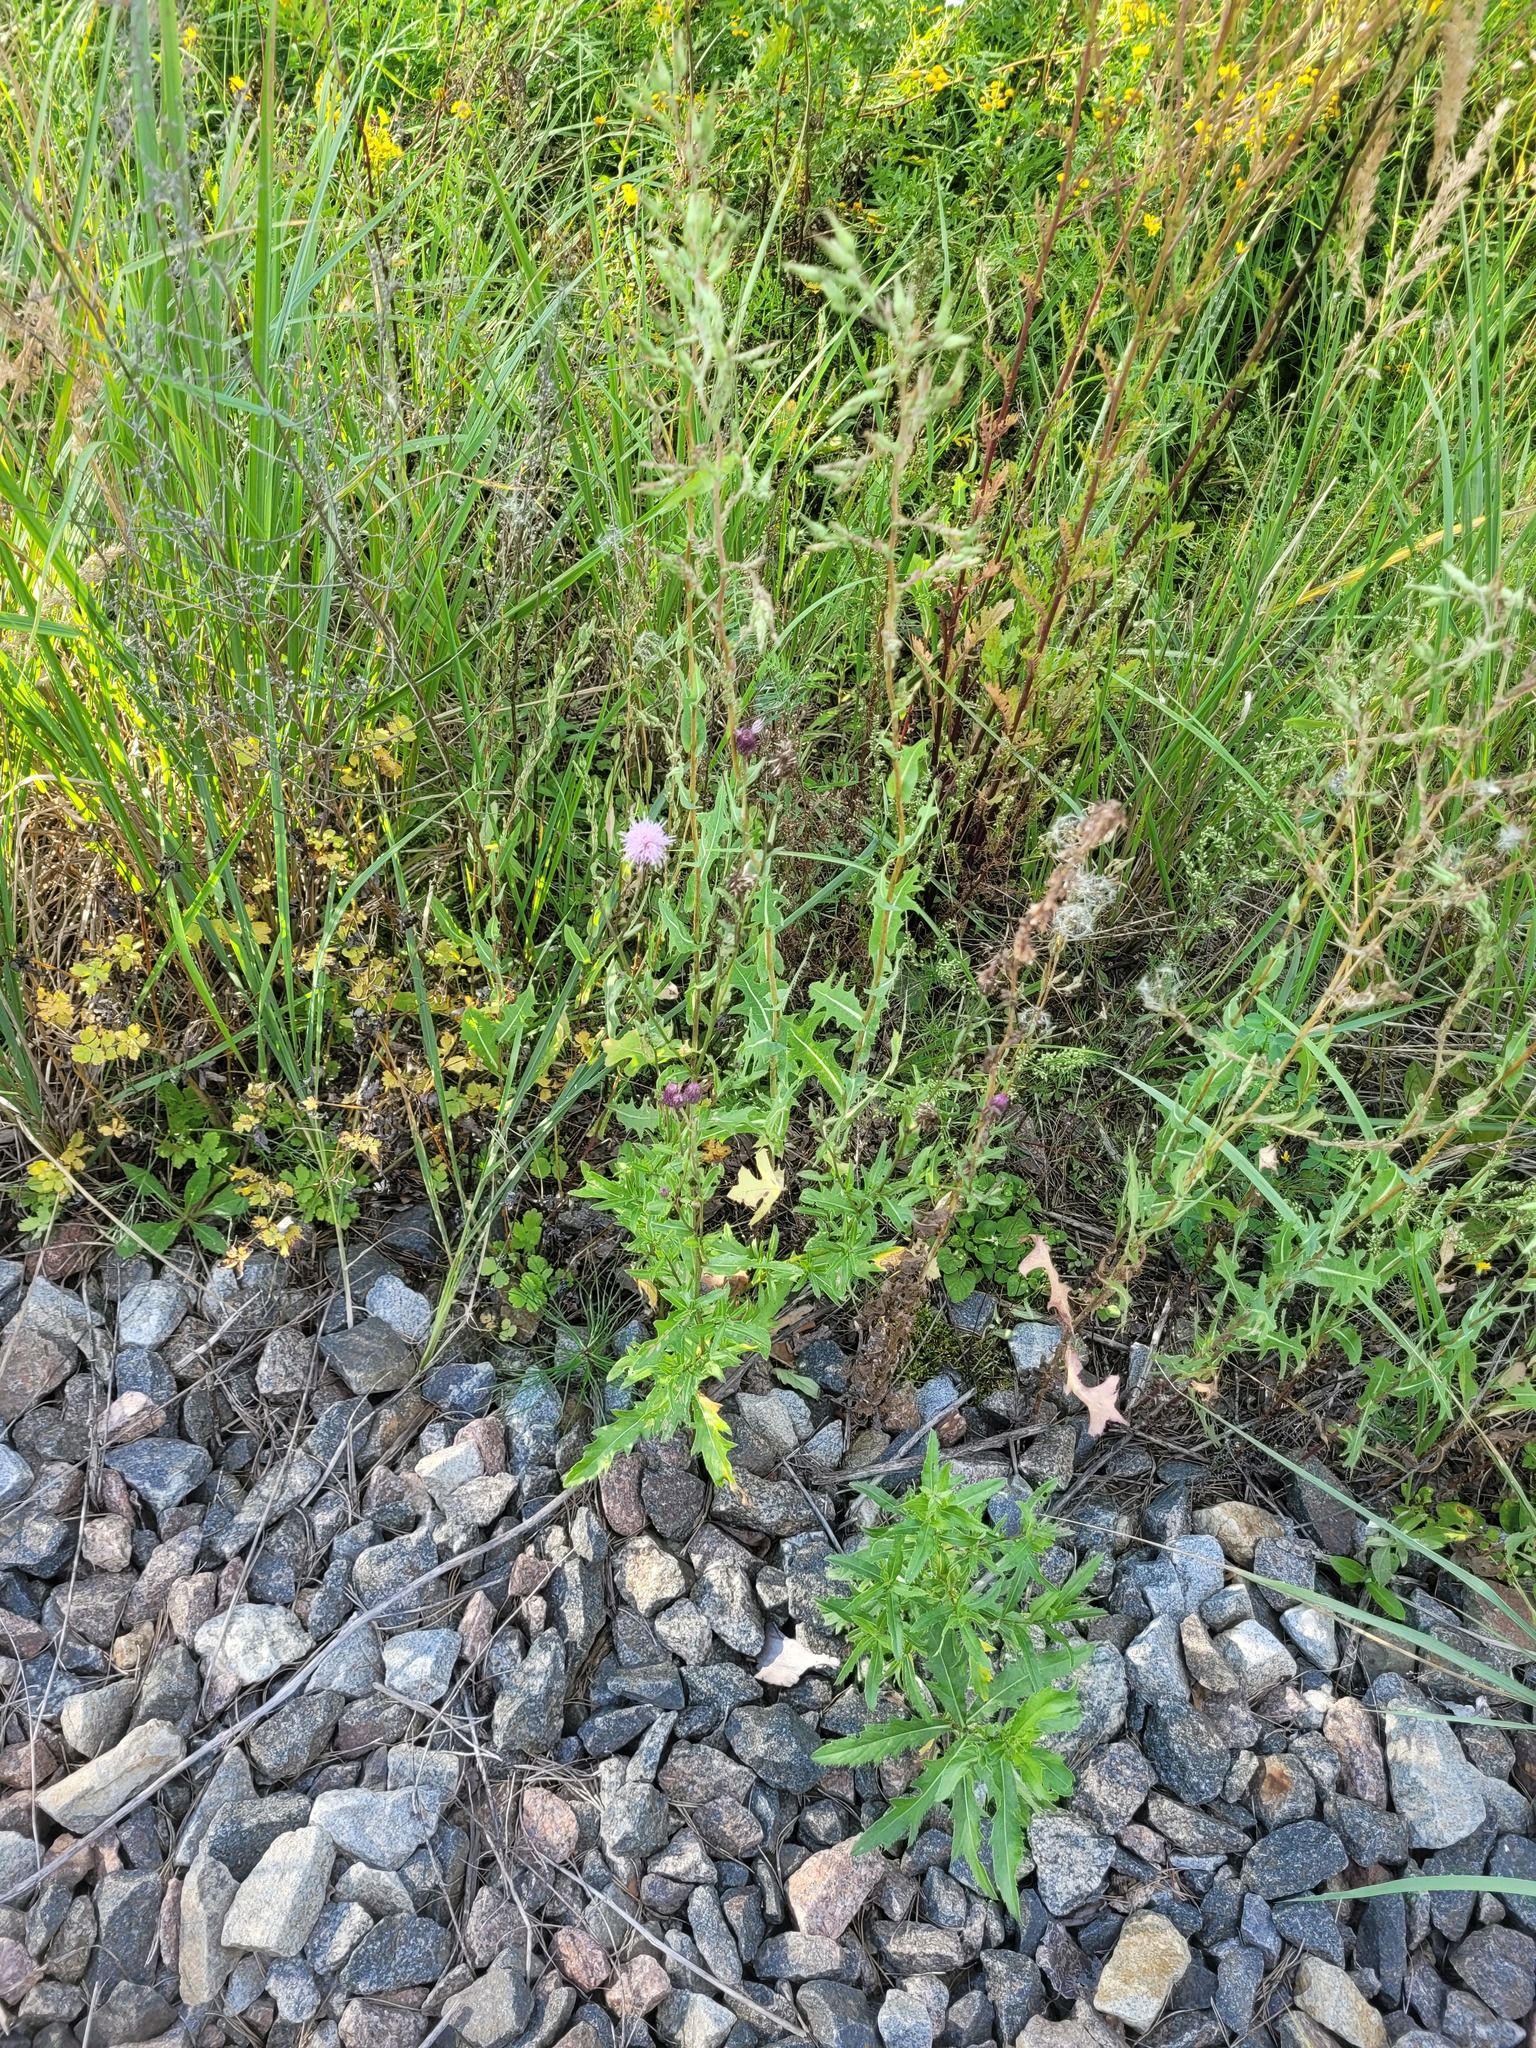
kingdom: Plantae
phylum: Tracheophyta
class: Magnoliopsida
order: Asterales
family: Asteraceae
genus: Cirsium
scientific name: Cirsium arvense
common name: Creeping thistle
